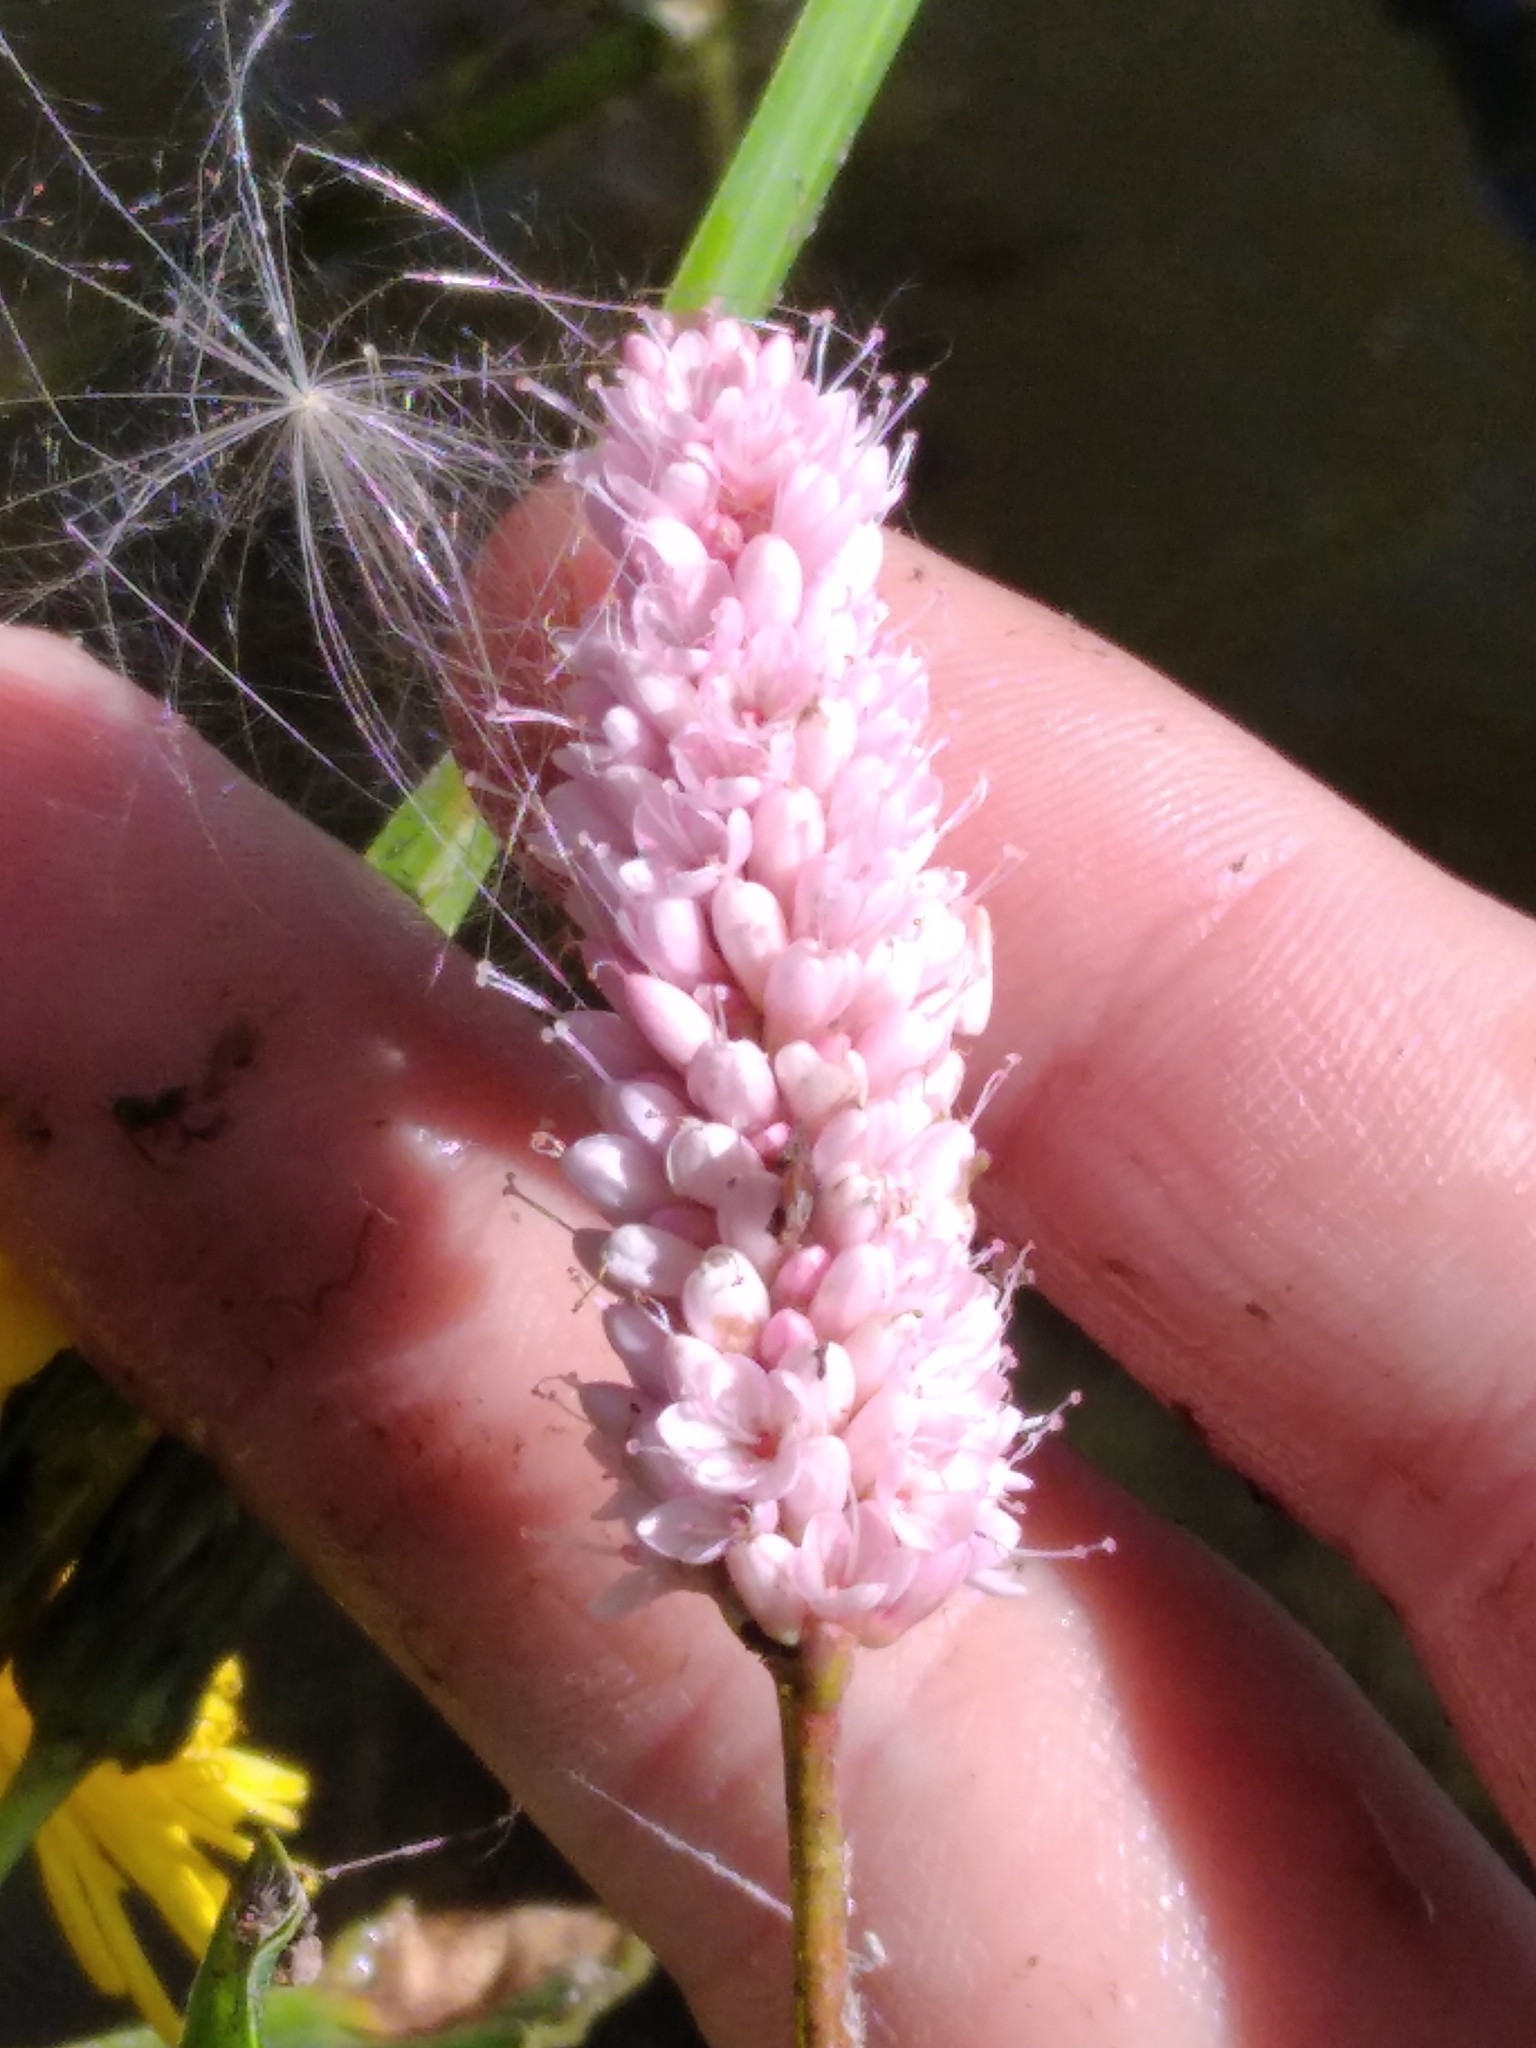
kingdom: Plantae
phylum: Tracheophyta
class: Magnoliopsida
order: Caryophyllales
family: Polygonaceae
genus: Bistorta
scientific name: Bistorta officinalis
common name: Common bistort
